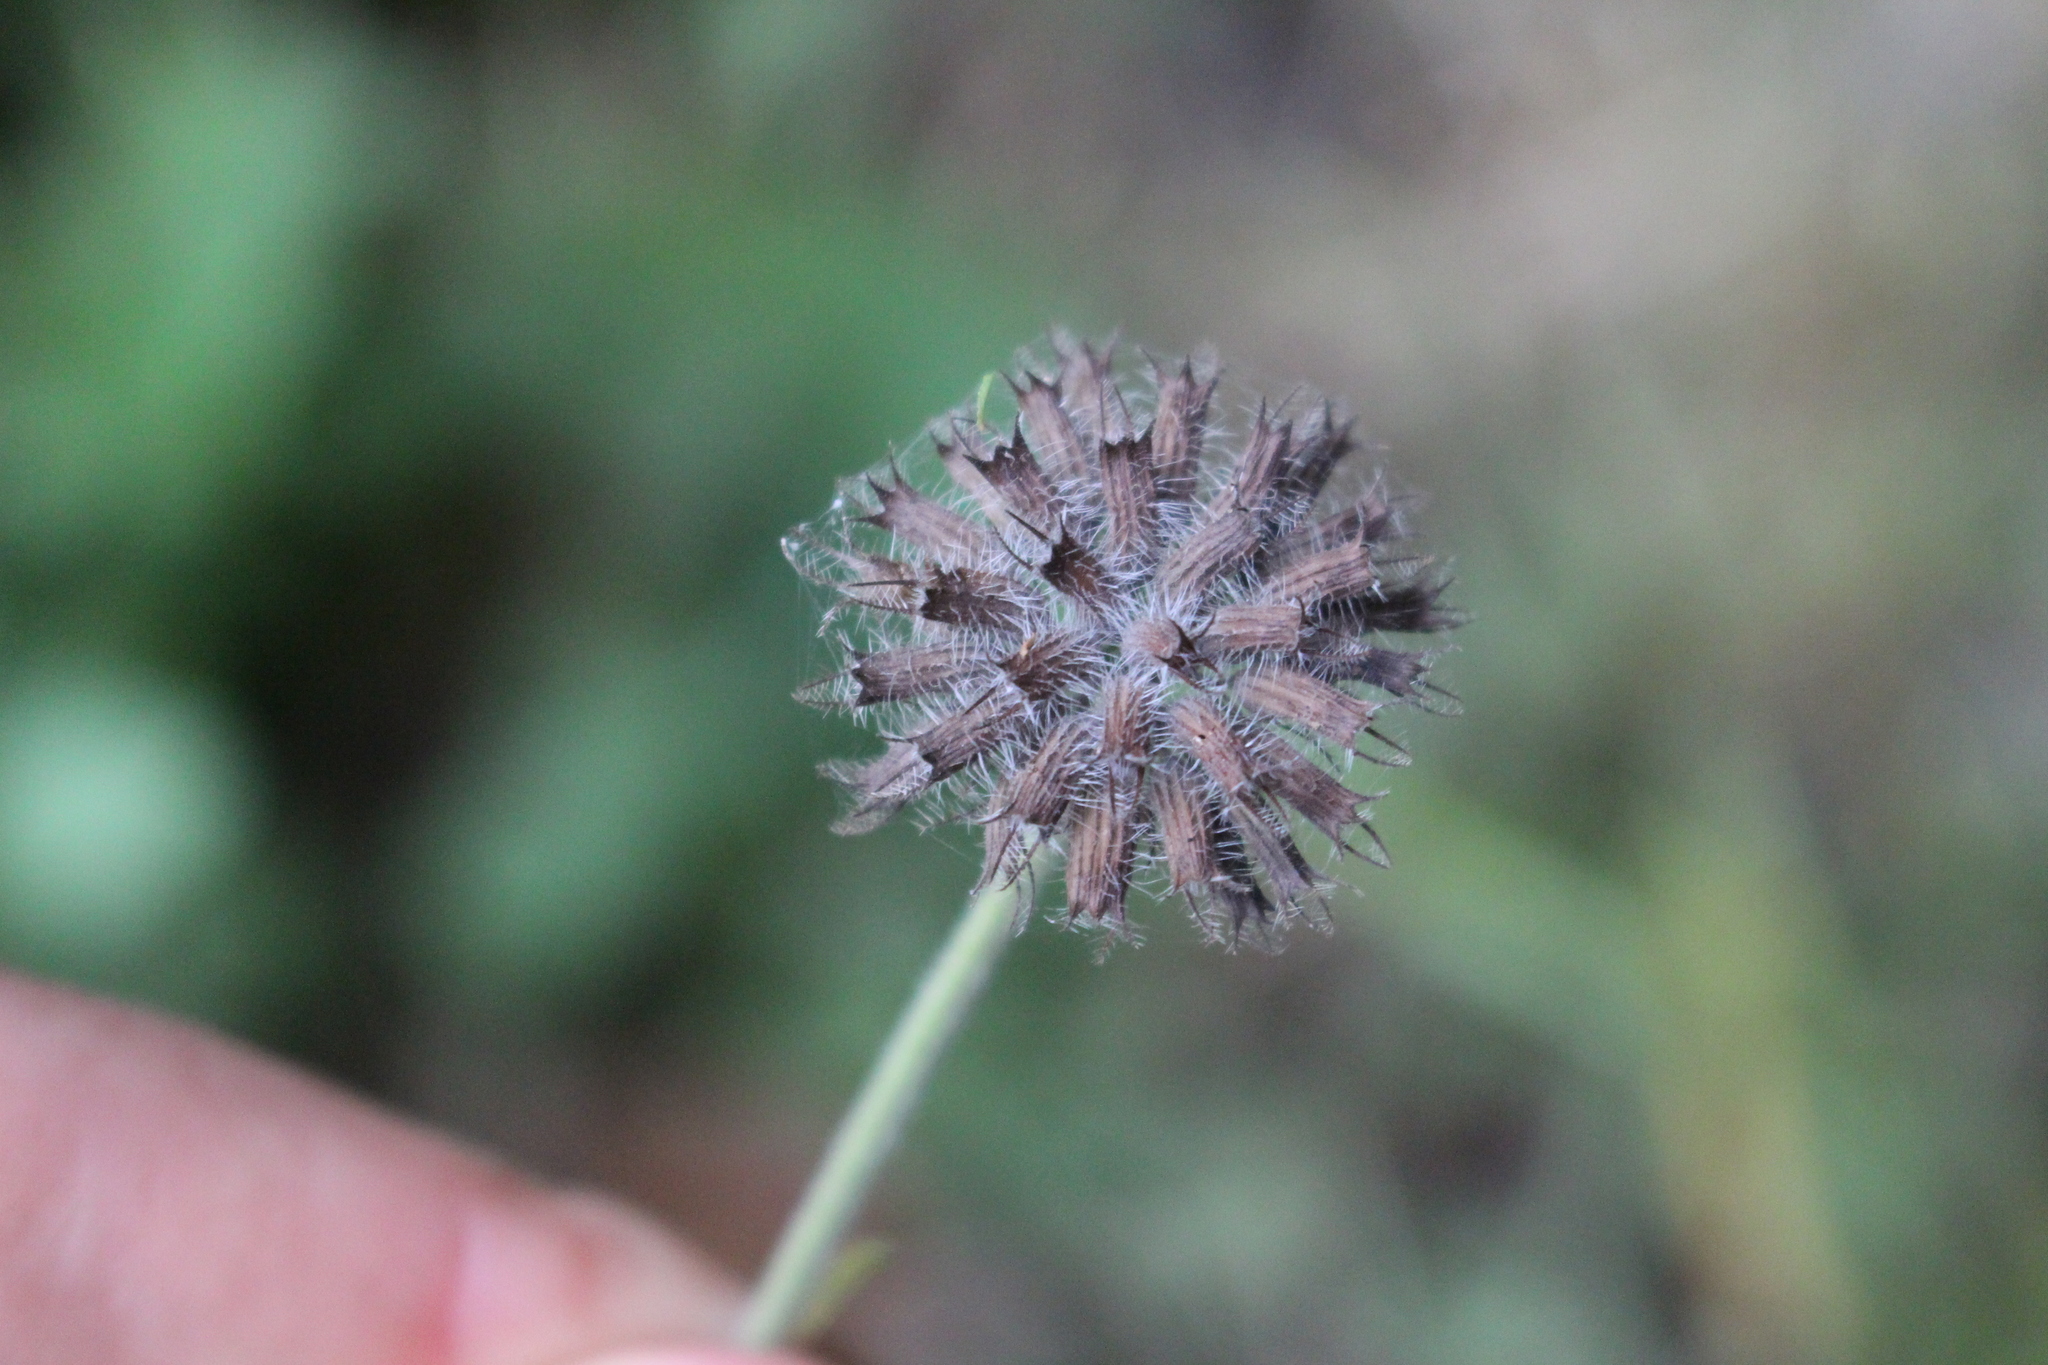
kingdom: Plantae
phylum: Tracheophyta
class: Magnoliopsida
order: Lamiales
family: Lamiaceae
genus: Clinopodium
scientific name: Clinopodium vulgare
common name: Wild basil
